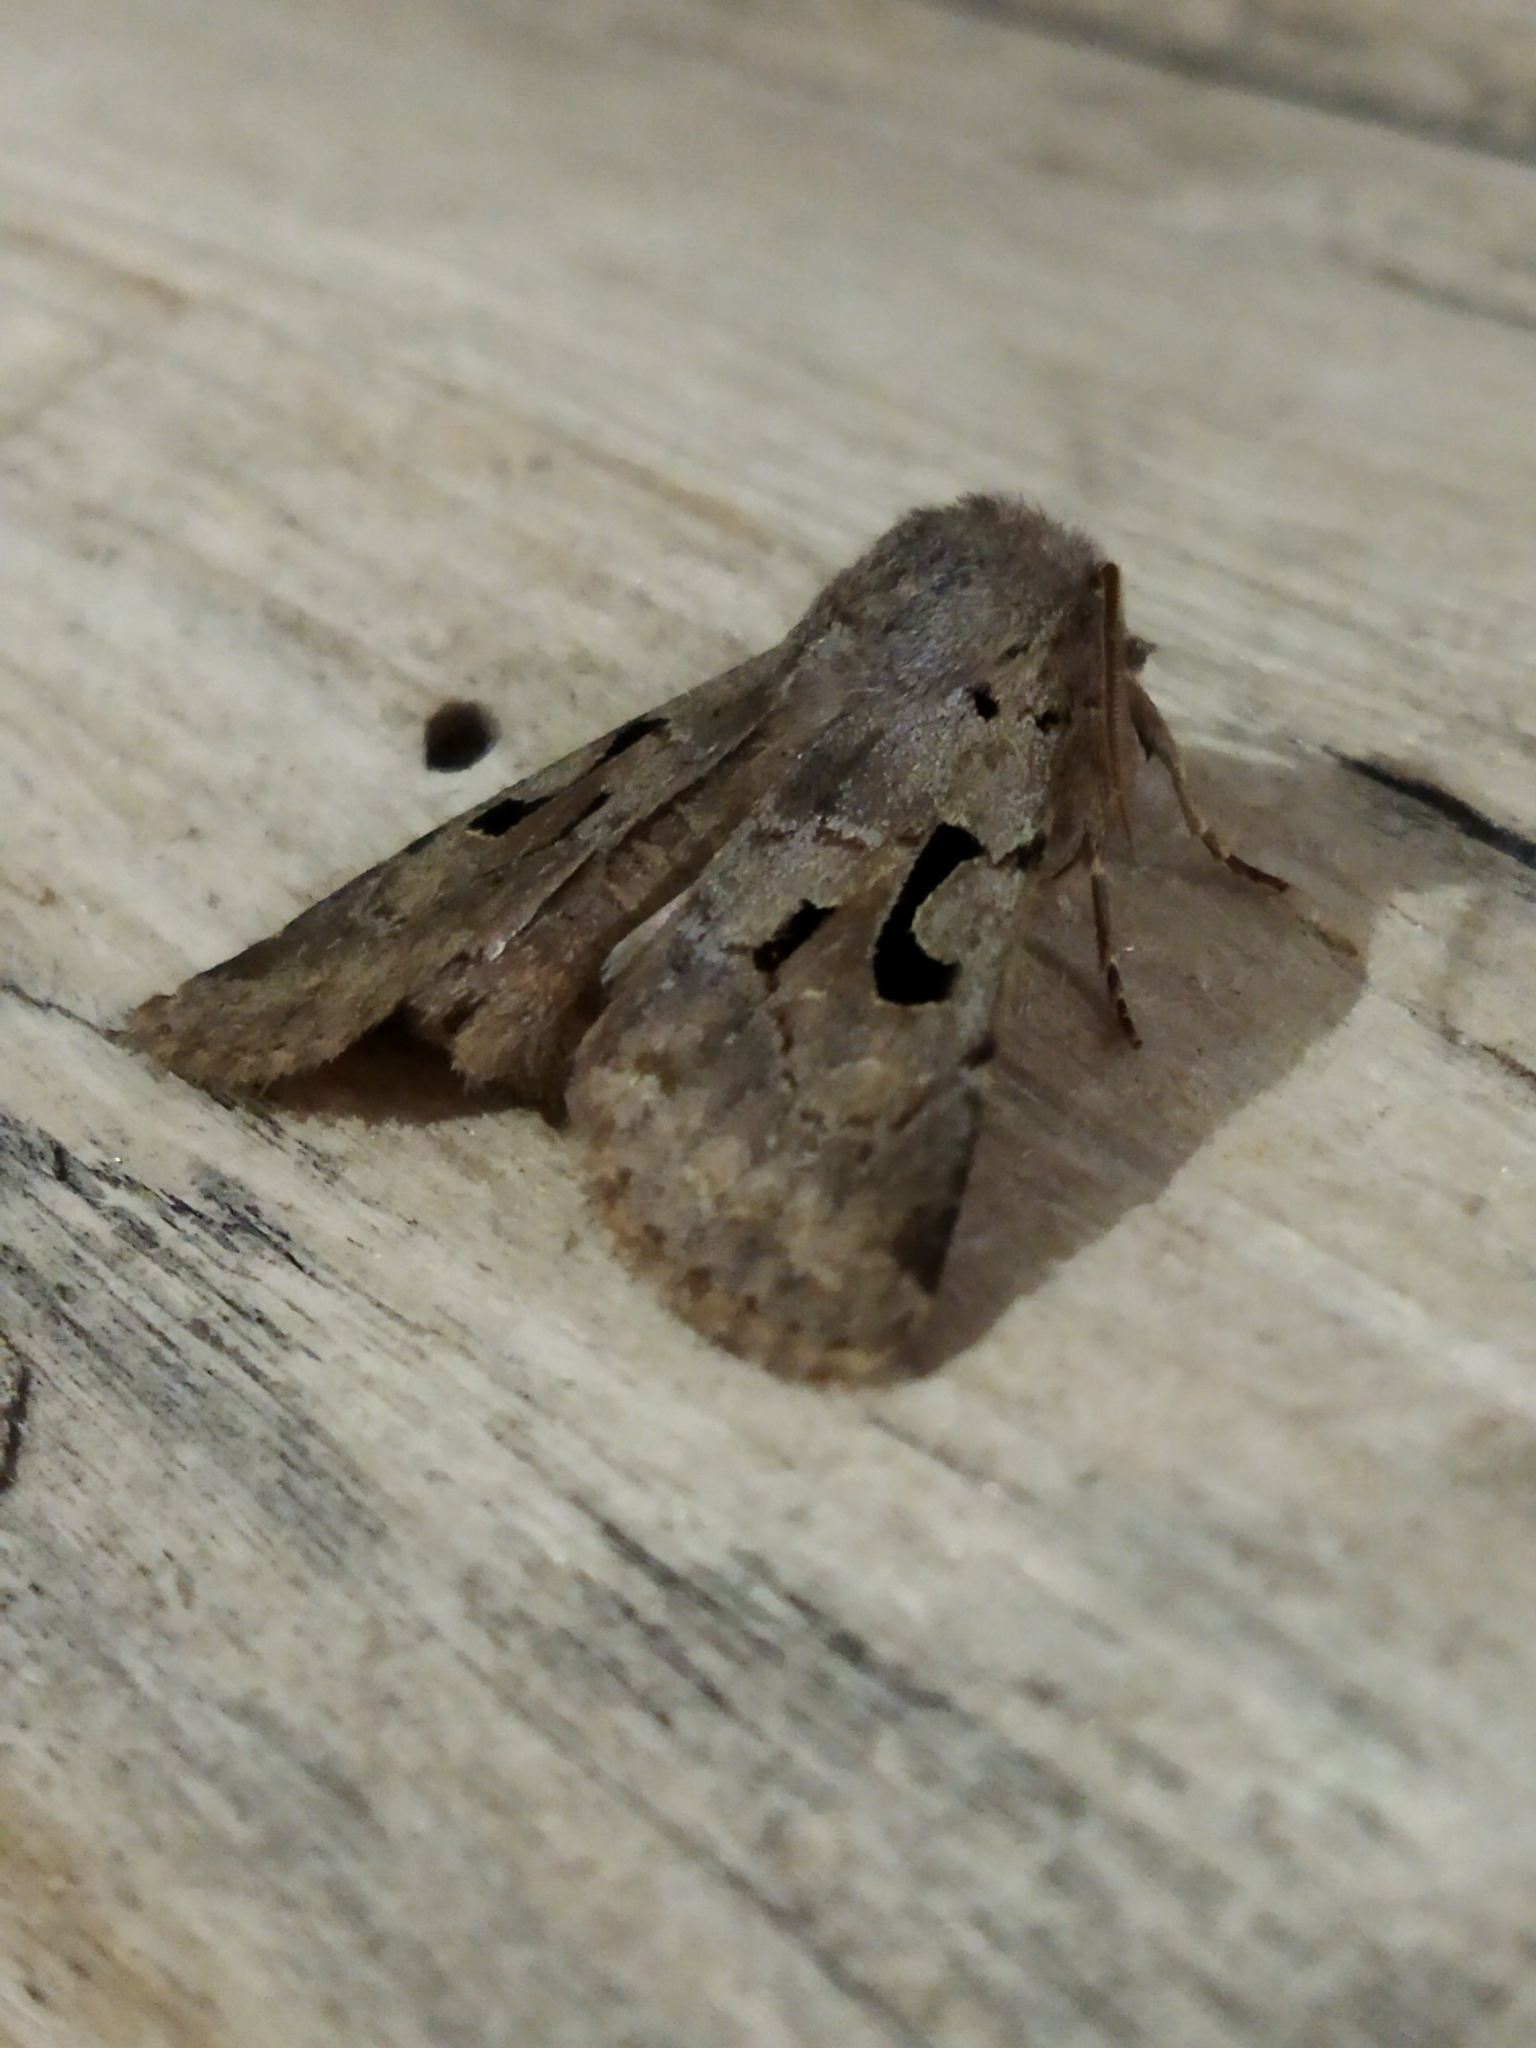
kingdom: Animalia
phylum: Arthropoda
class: Insecta
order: Lepidoptera
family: Noctuidae
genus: Orthosia
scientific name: Orthosia gothica
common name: Hebrew character
